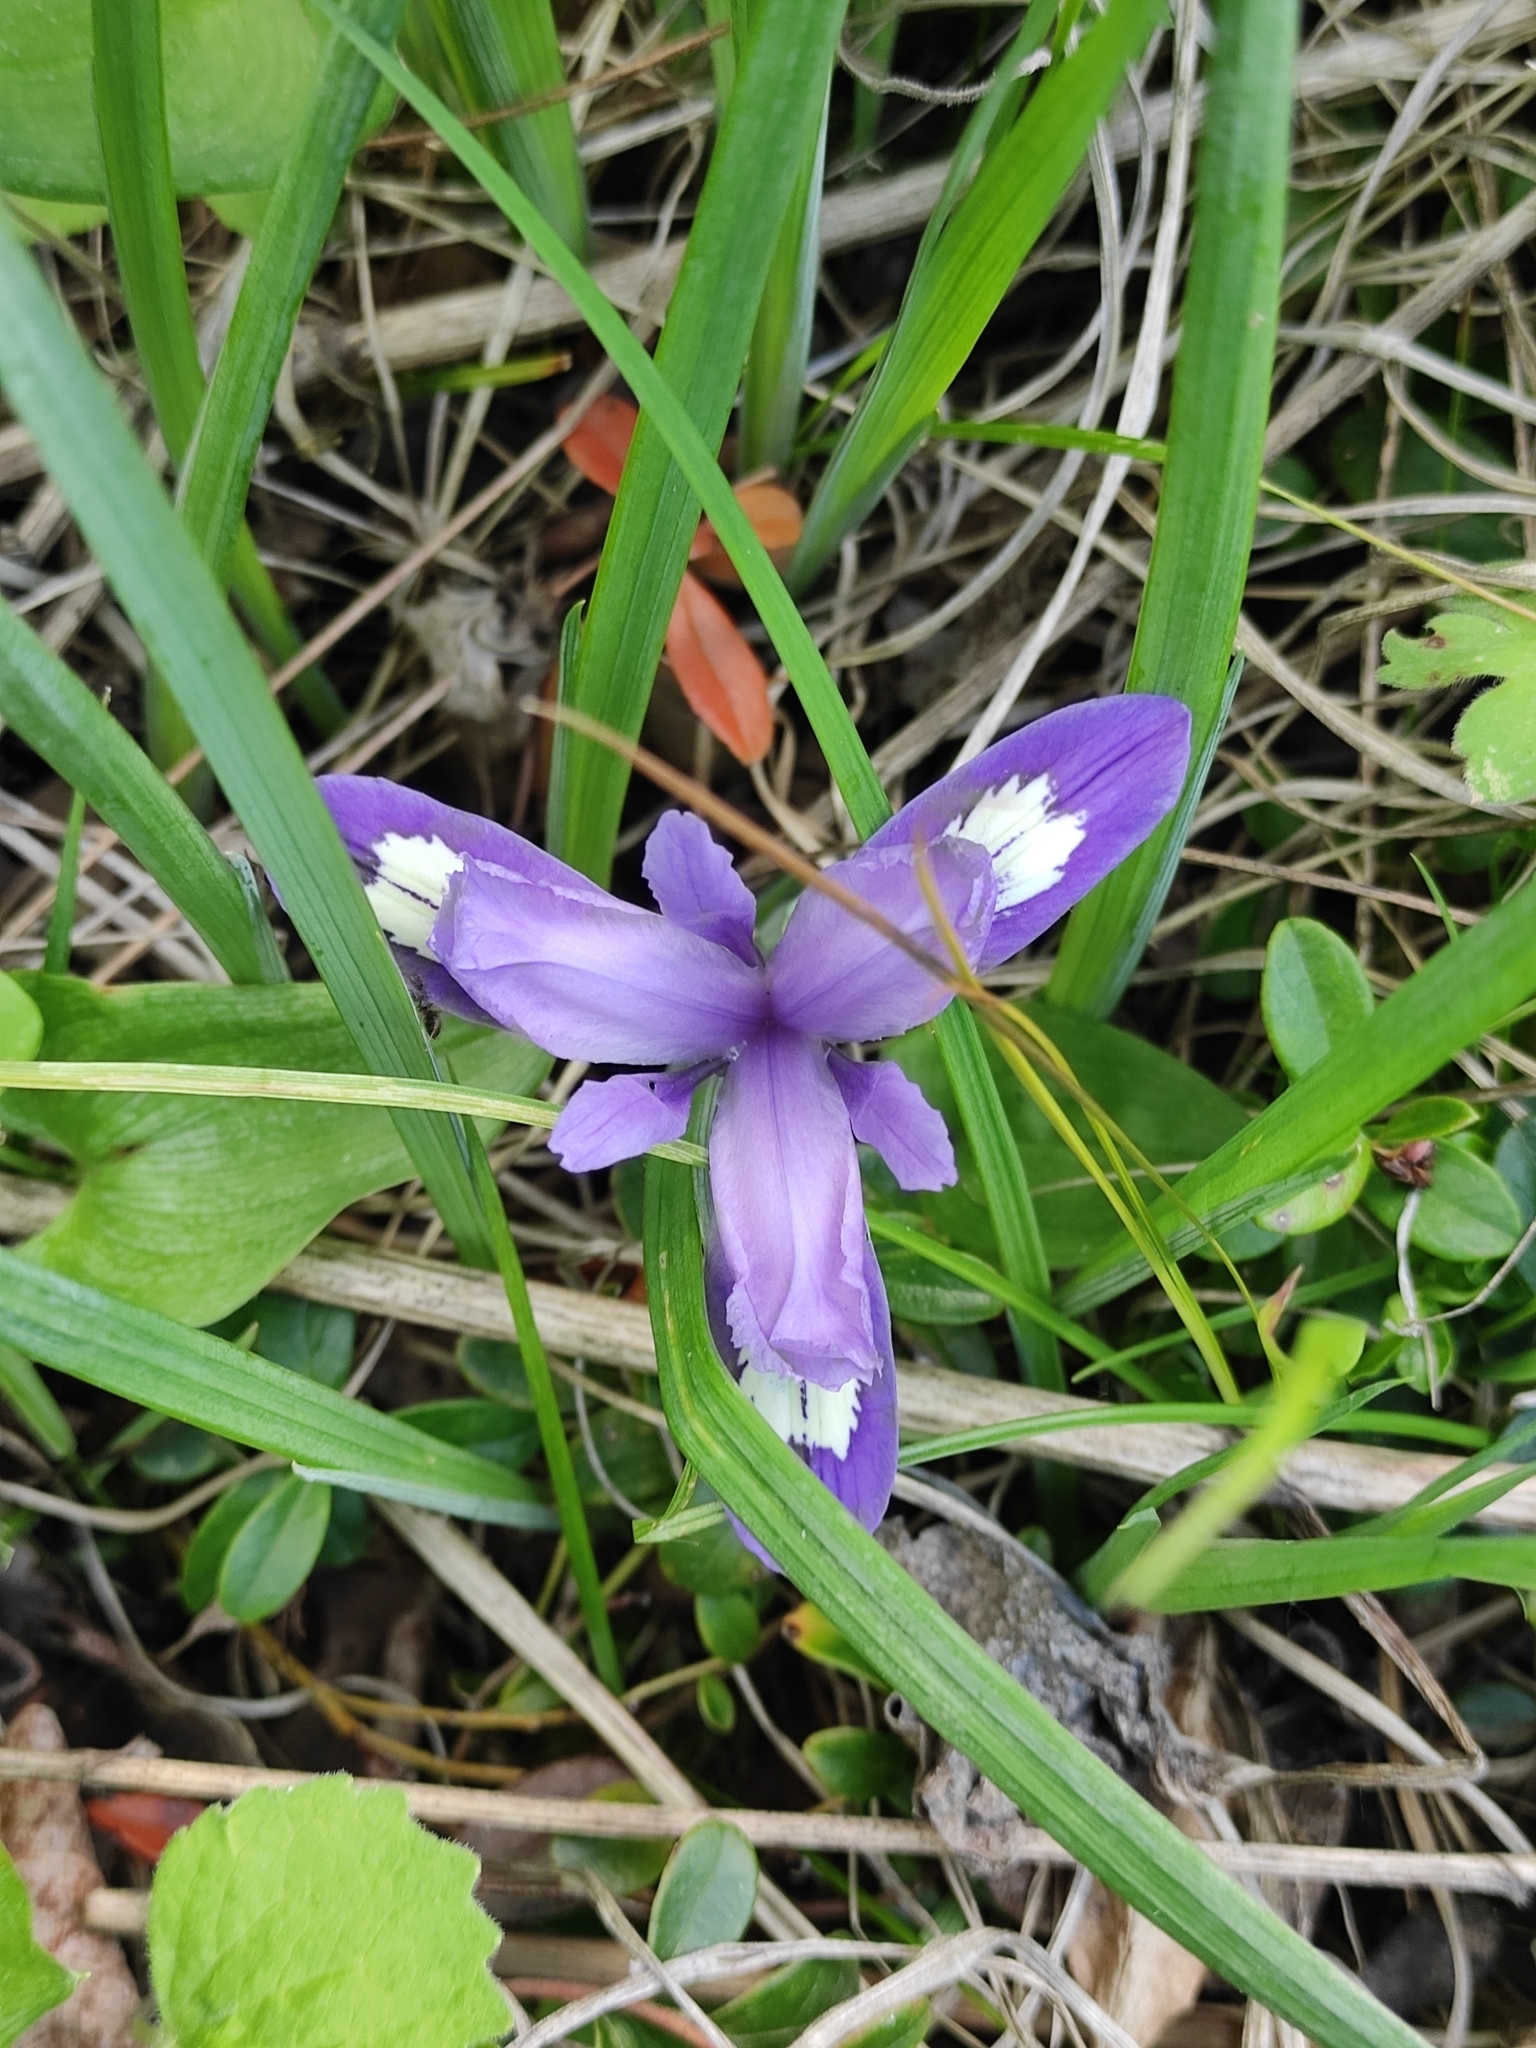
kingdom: Plantae
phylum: Tracheophyta
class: Liliopsida
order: Asparagales
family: Iridaceae
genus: Iris
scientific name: Iris ruthenica
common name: Purple-bract iris
